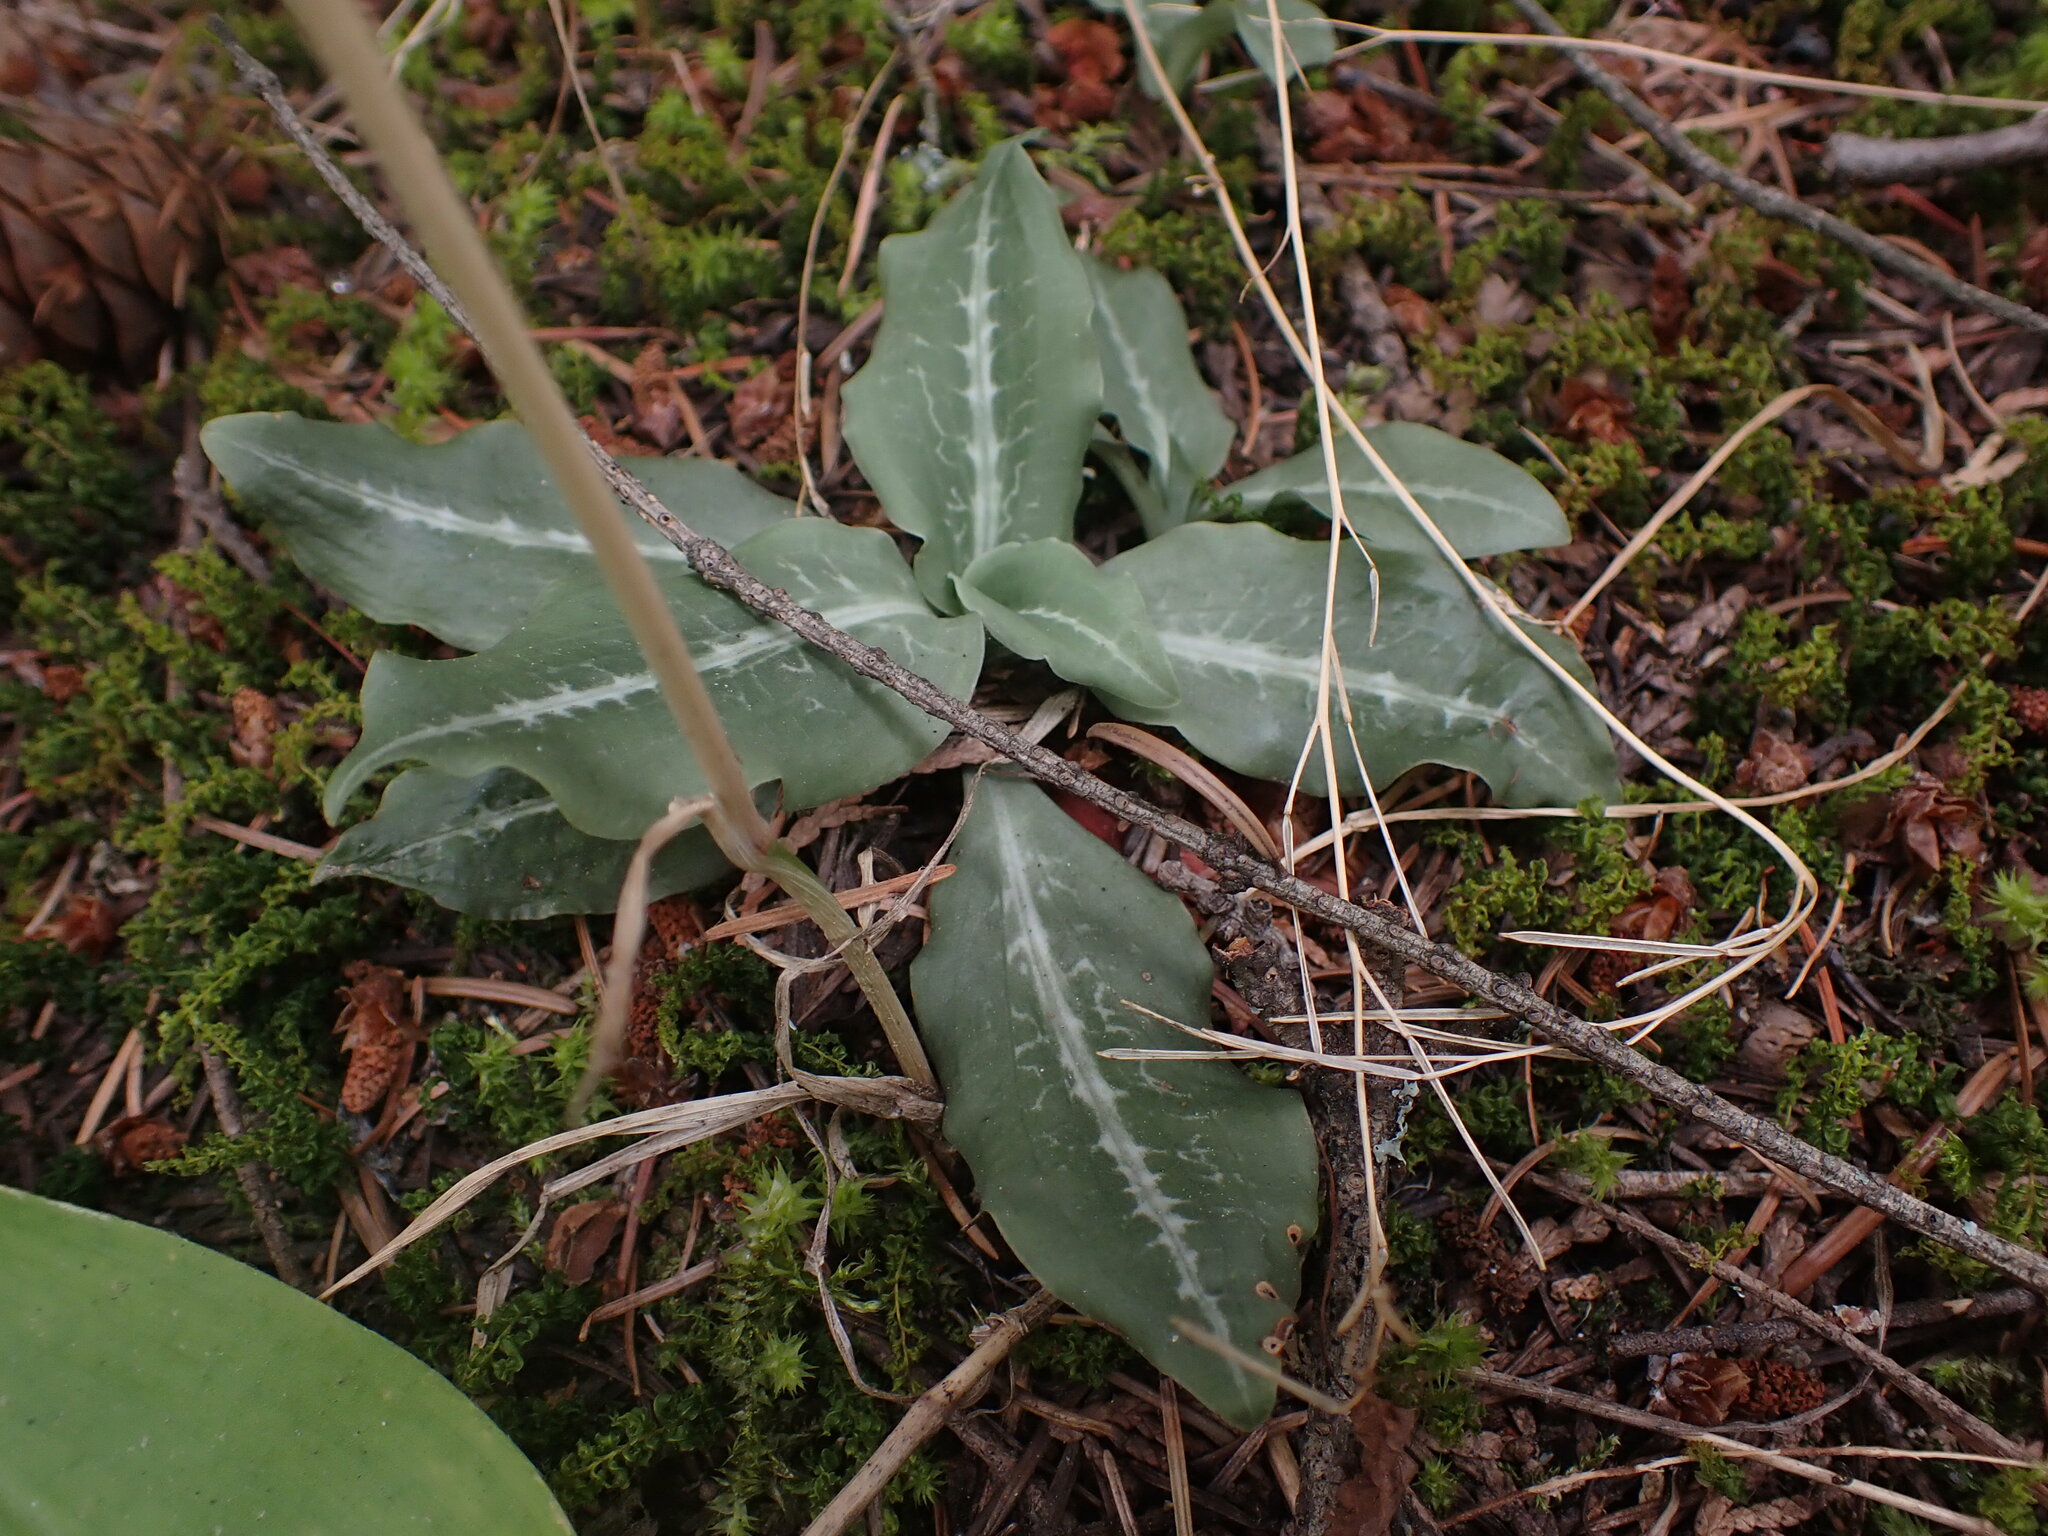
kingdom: Plantae
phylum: Tracheophyta
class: Liliopsida
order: Asparagales
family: Orchidaceae
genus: Goodyera
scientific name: Goodyera oblongifolia
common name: Giant rattlesnake-plantain
